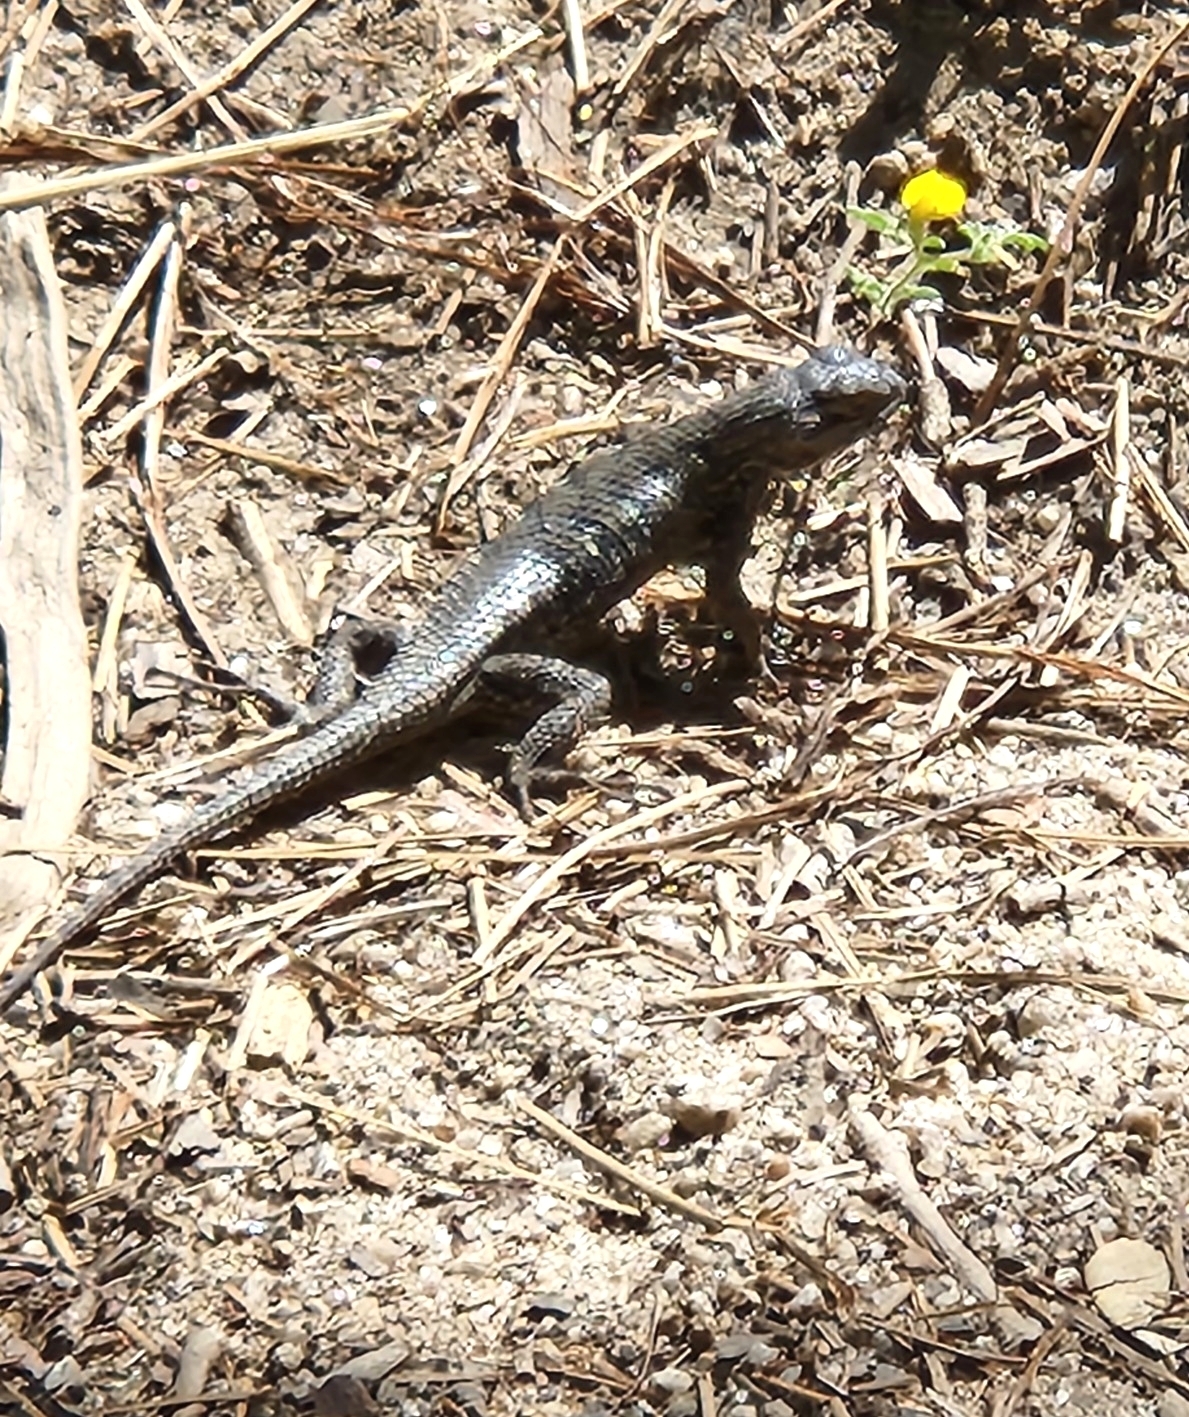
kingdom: Animalia
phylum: Chordata
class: Squamata
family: Phrynosomatidae
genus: Sceloporus
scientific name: Sceloporus occidentalis
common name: Western fence lizard
